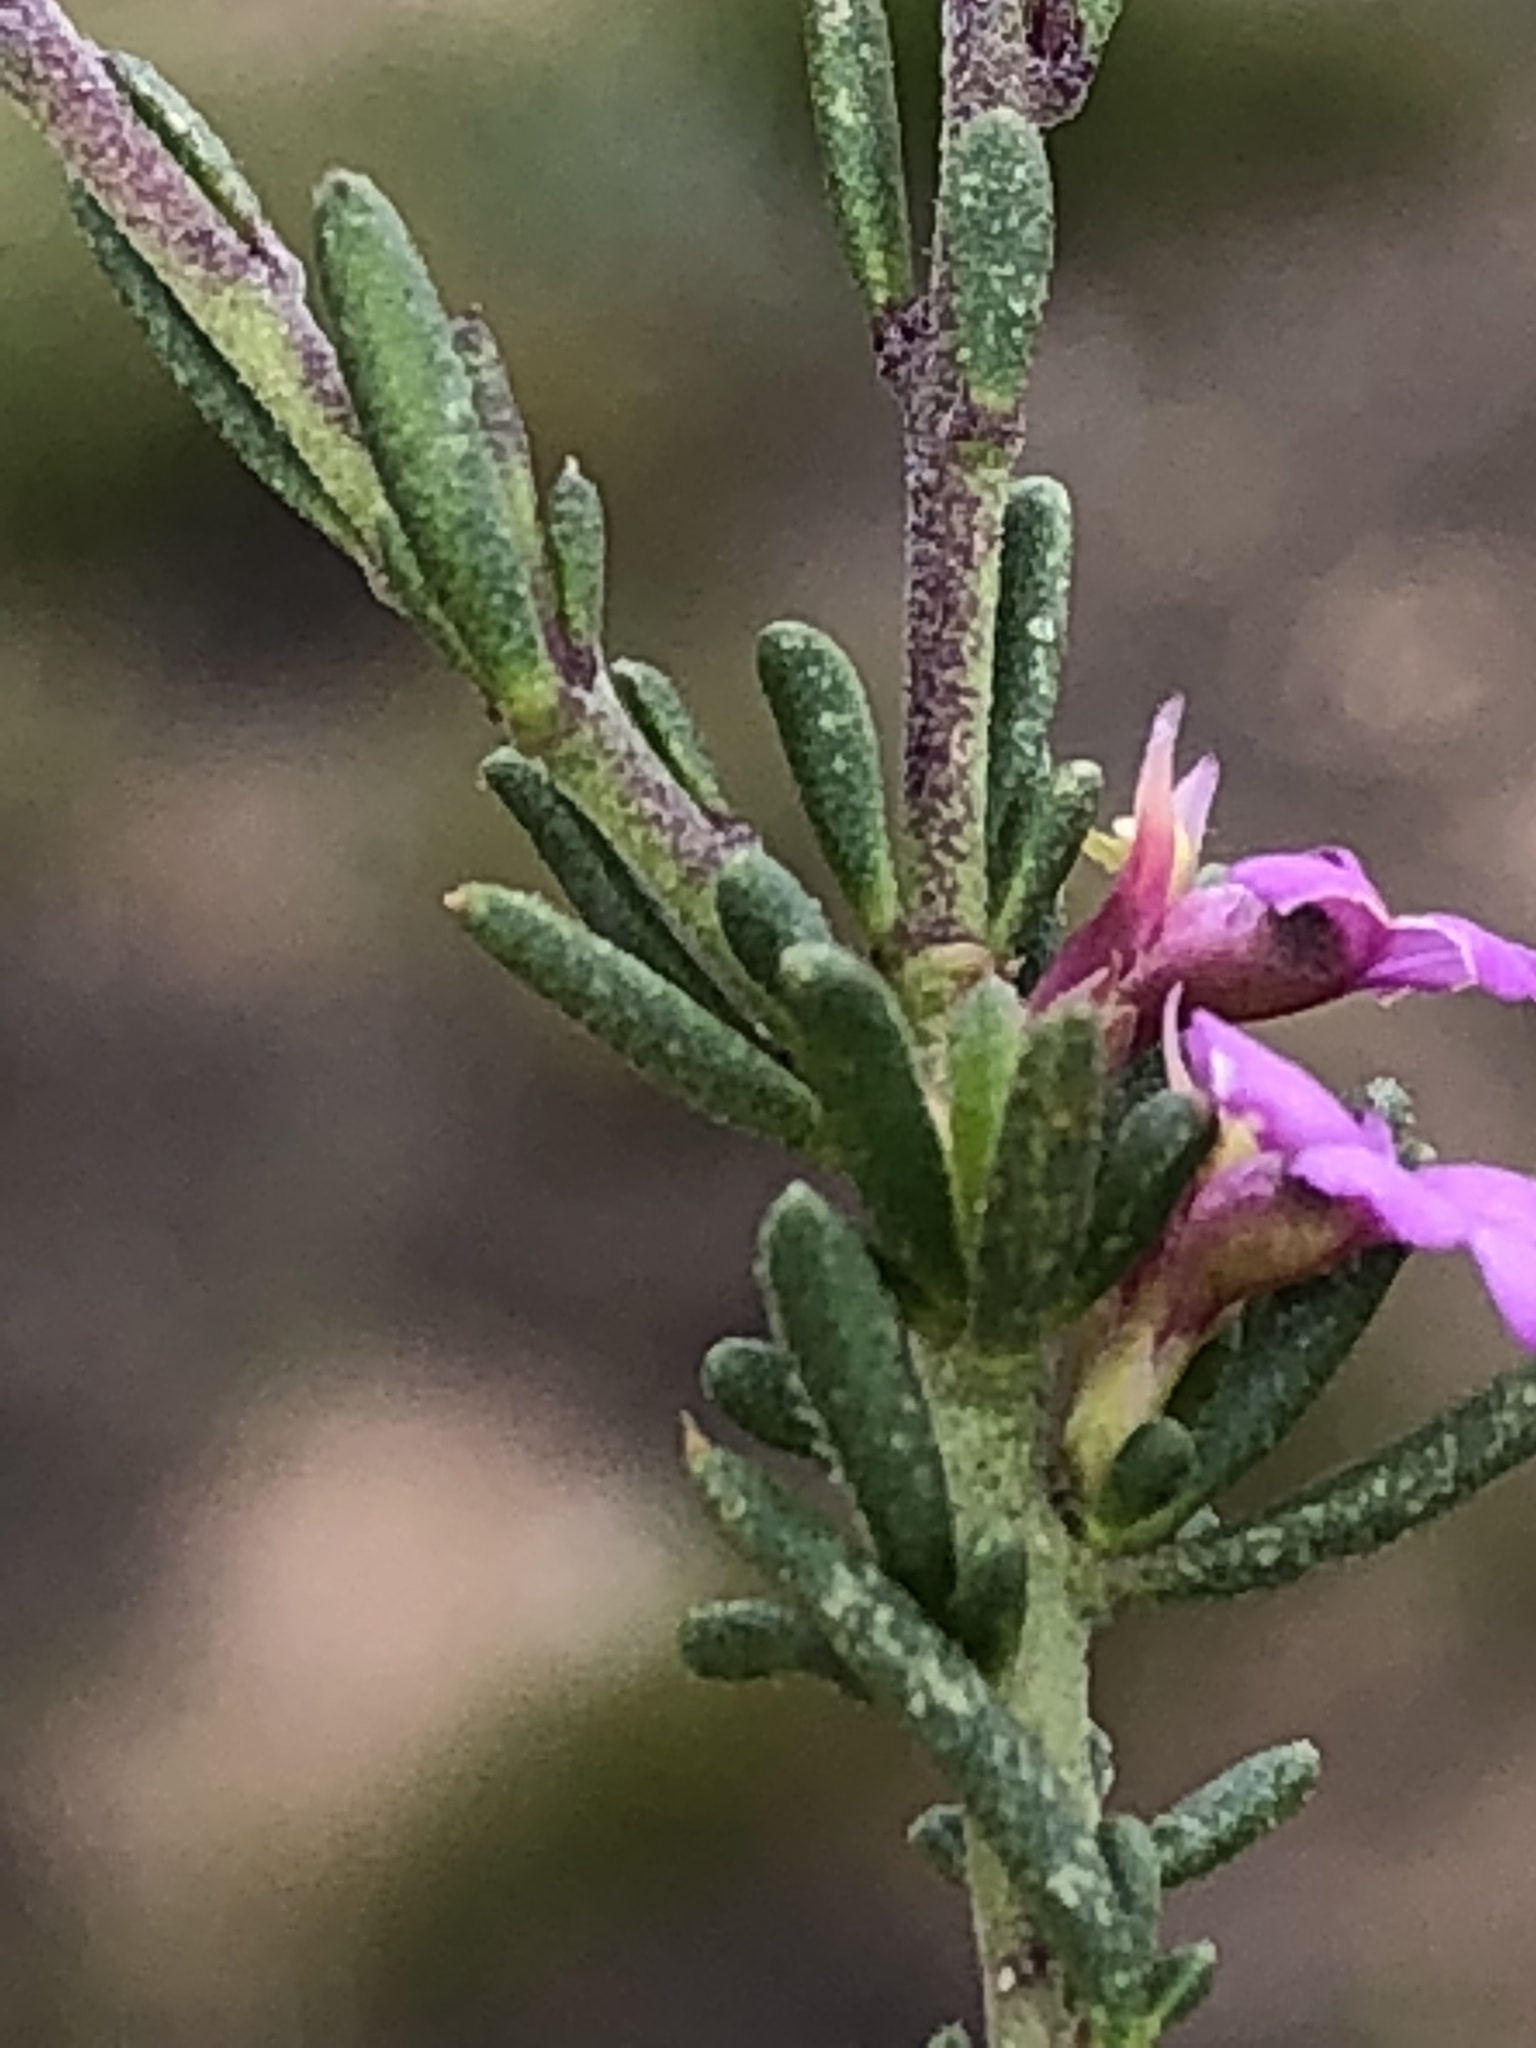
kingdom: Plantae
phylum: Tracheophyta
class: Magnoliopsida
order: Fabales
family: Polygalaceae
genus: Muraltia
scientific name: Muraltia dispersa
